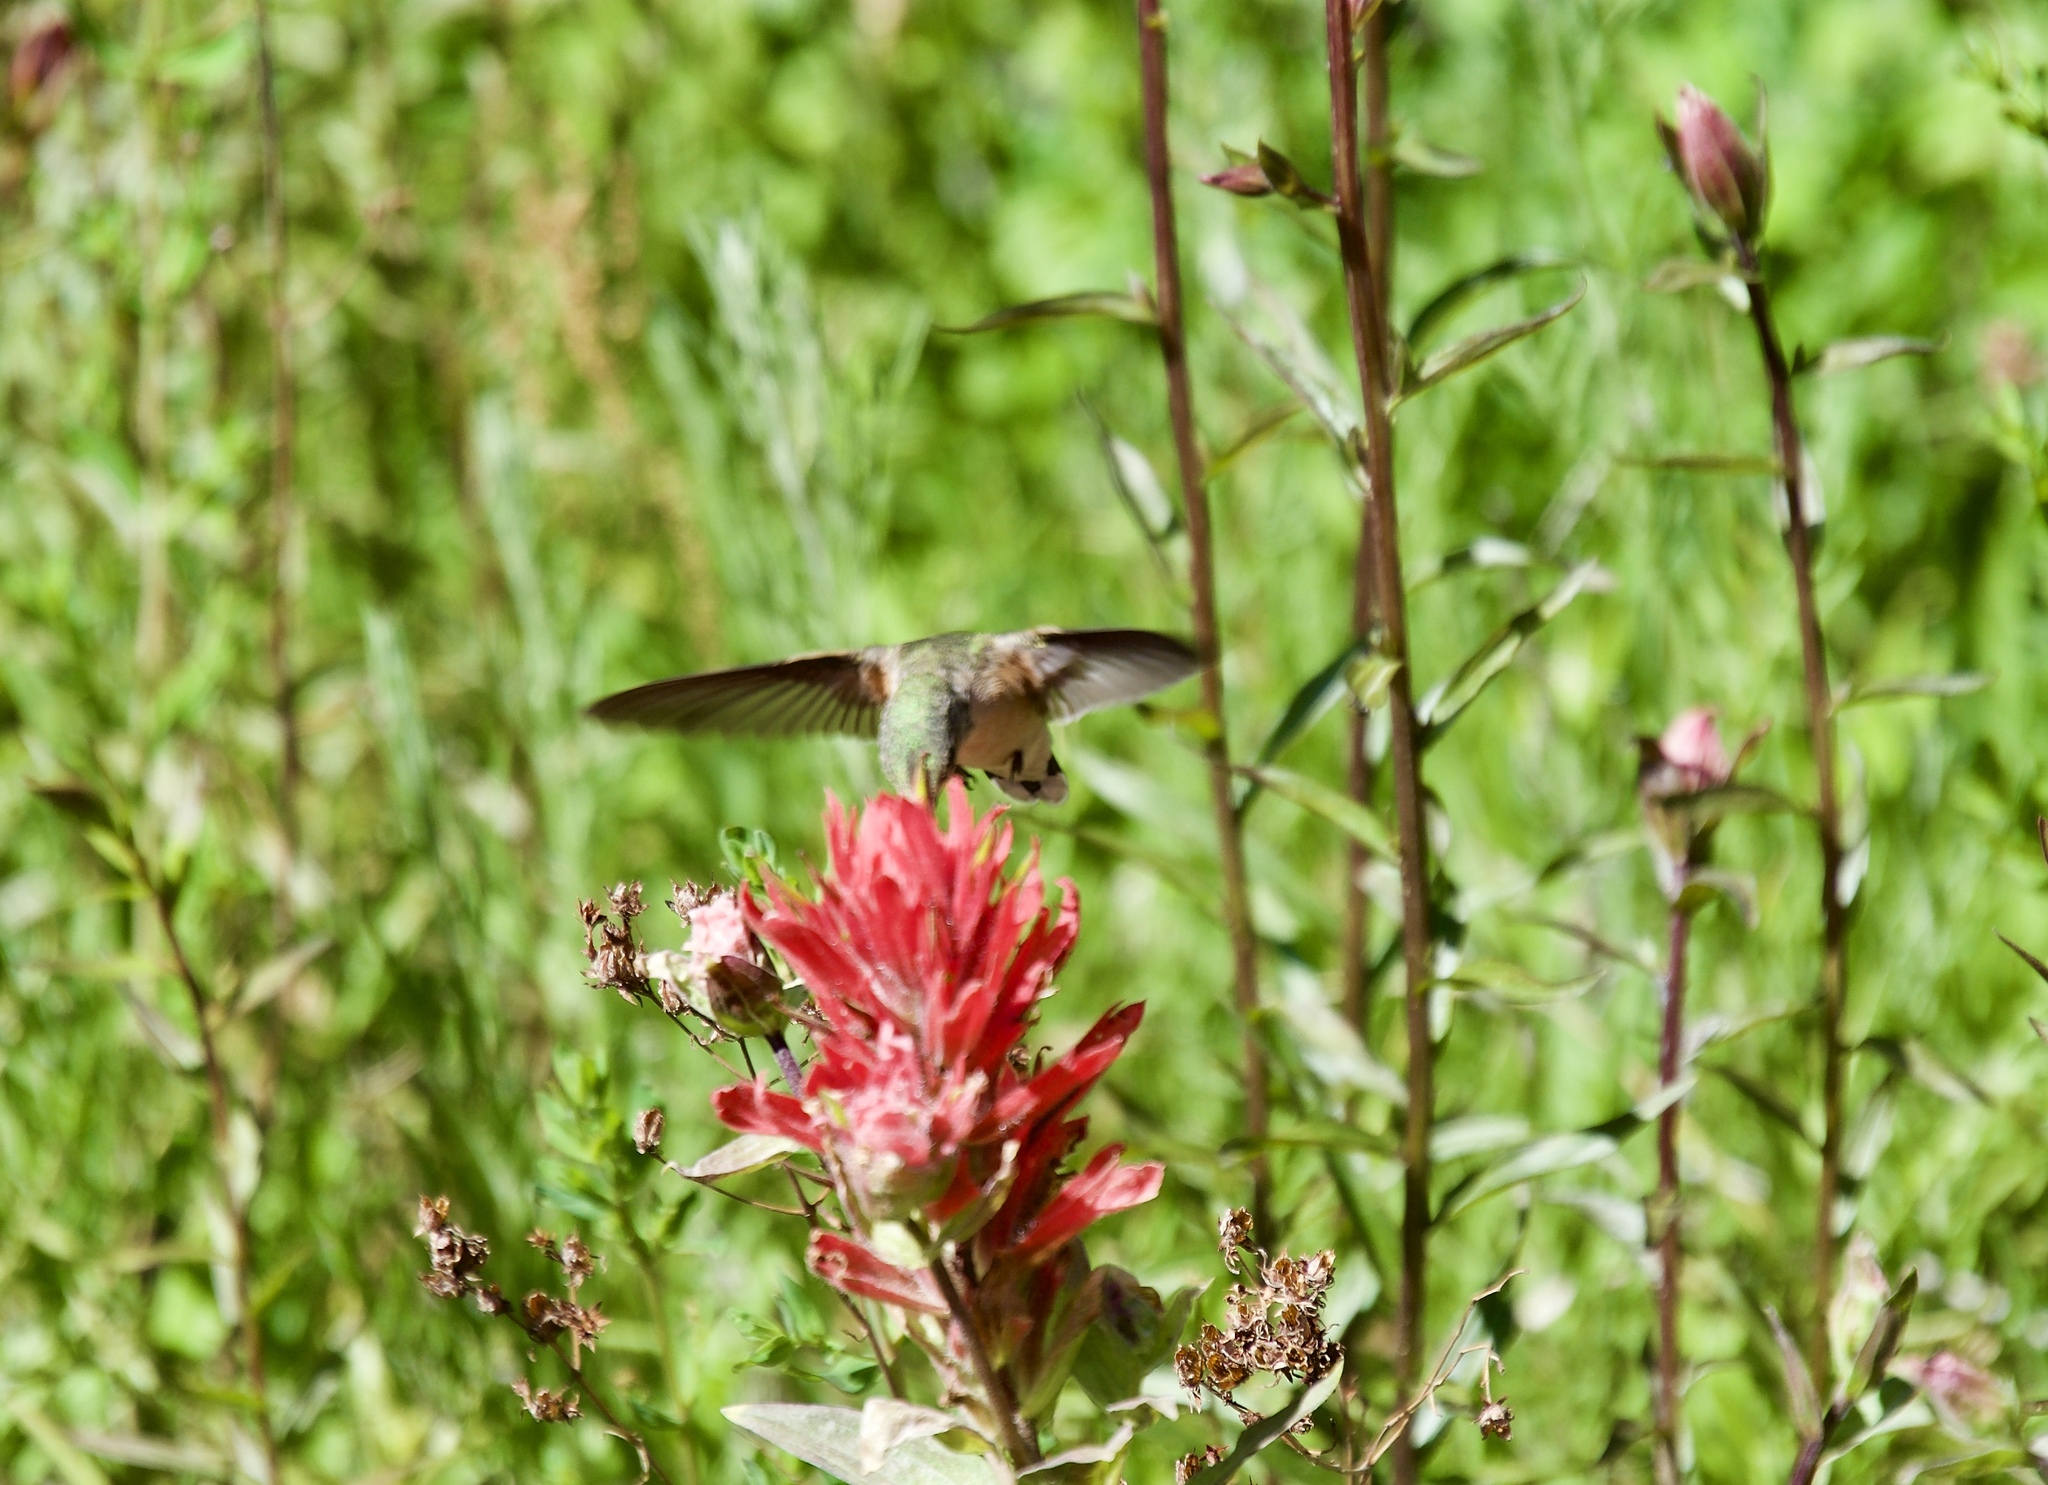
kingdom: Animalia
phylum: Chordata
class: Aves
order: Apodiformes
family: Trochilidae
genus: Selasphorus
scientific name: Selasphorus calliope
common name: Calliope hummingbird
